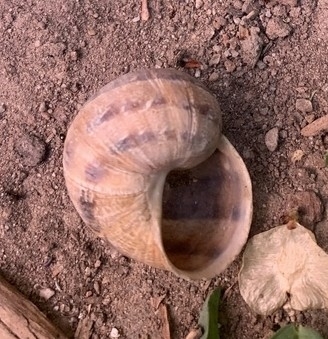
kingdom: Animalia
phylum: Mollusca
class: Gastropoda
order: Stylommatophora
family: Helicidae
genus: Cornu
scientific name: Cornu aspersum
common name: Brown garden snail
